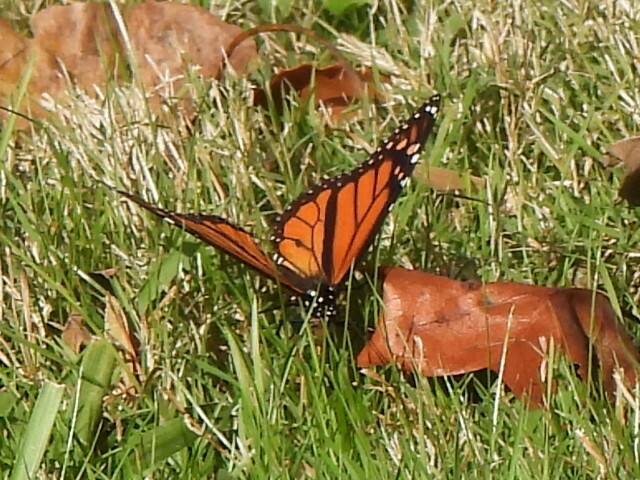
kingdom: Animalia
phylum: Arthropoda
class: Insecta
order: Lepidoptera
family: Nymphalidae
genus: Danaus
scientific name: Danaus plexippus
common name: Monarch
